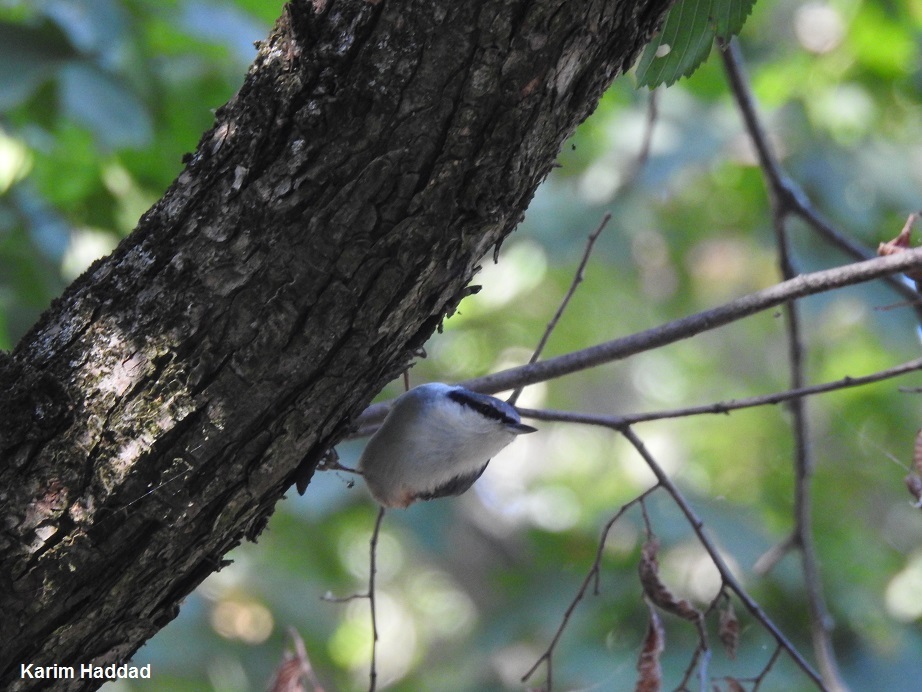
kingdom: Animalia
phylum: Chordata
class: Aves
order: Passeriformes
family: Sittidae
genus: Sitta
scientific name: Sitta europaea
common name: Eurasian nuthatch
